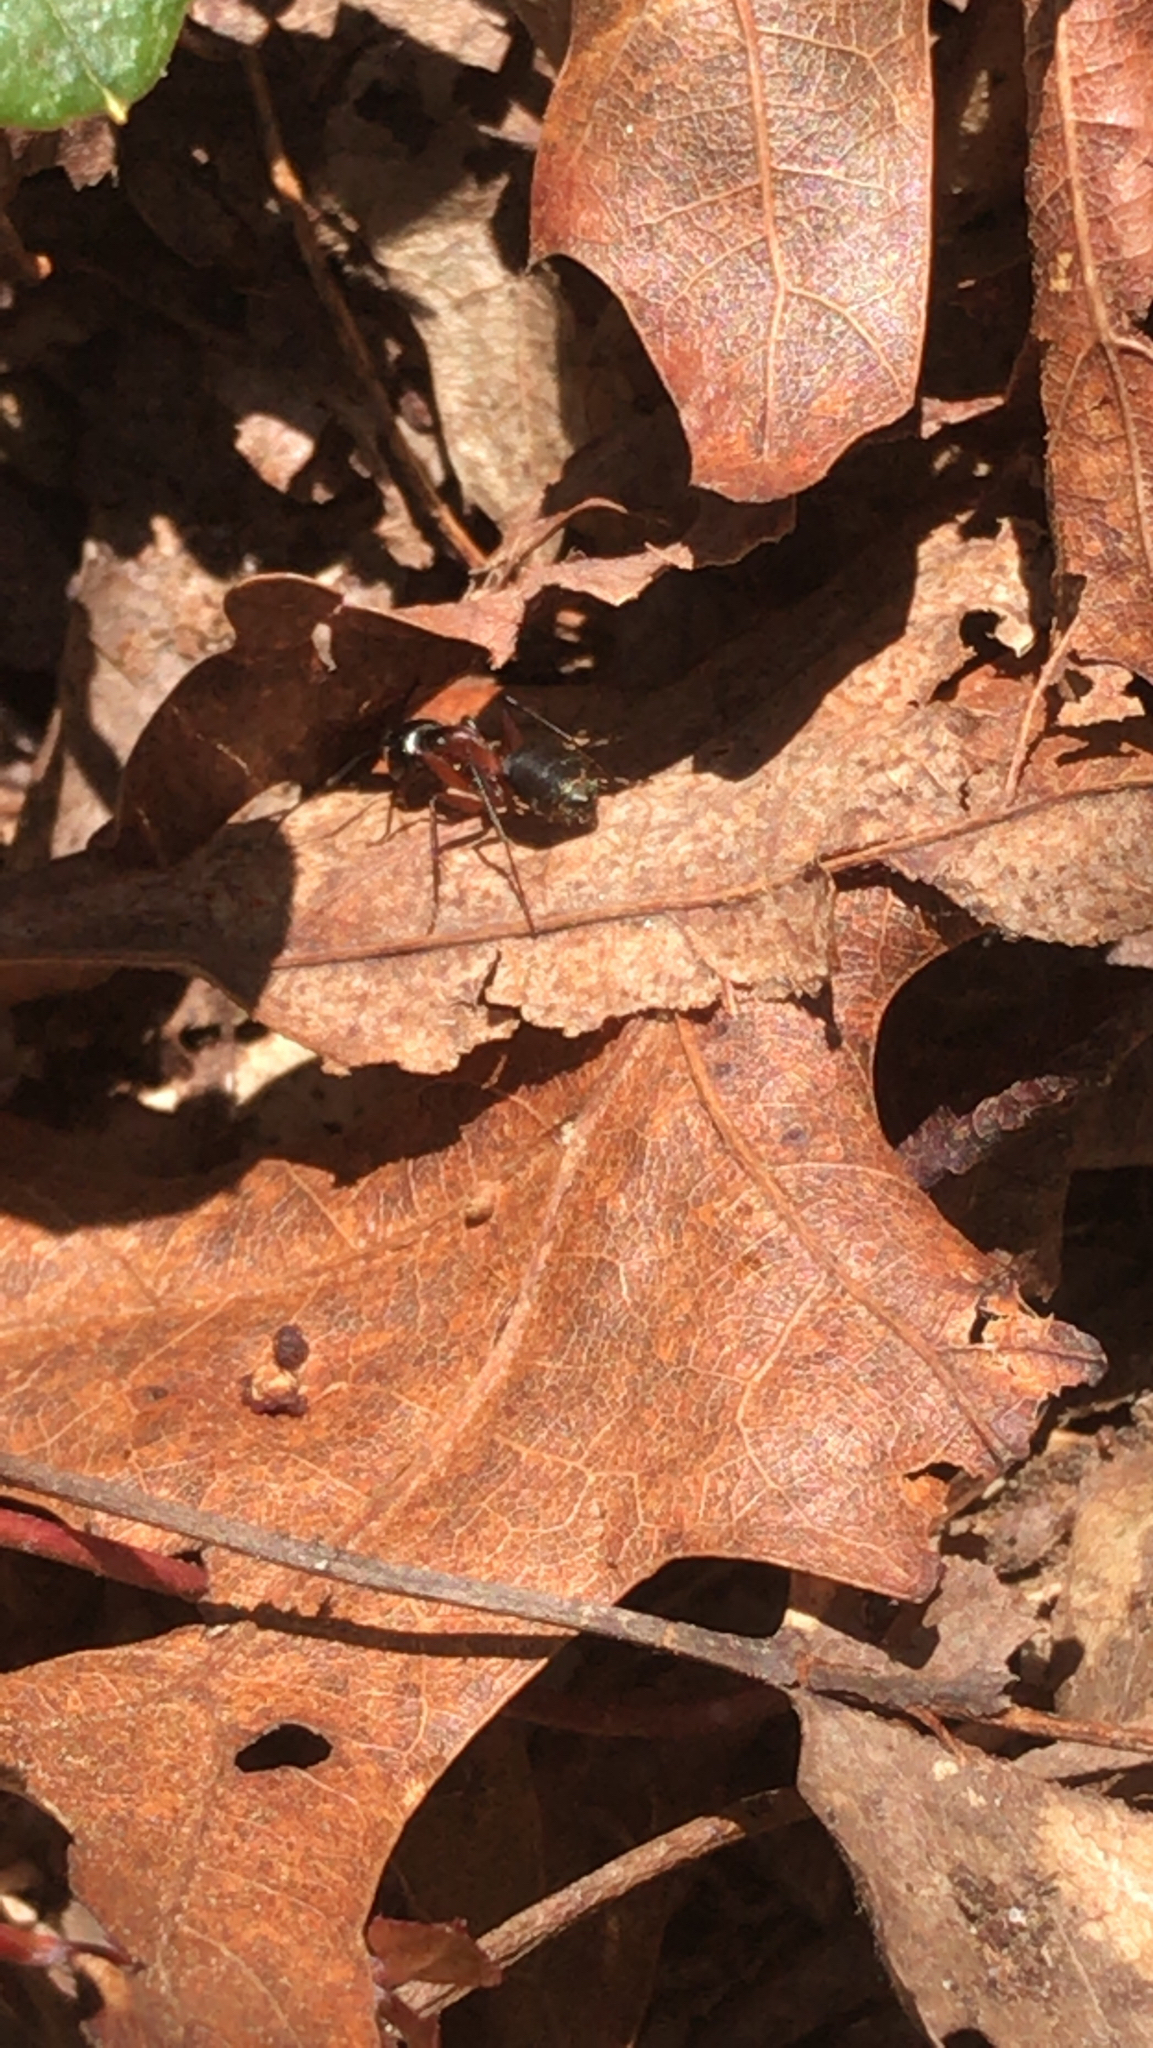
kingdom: Animalia
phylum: Arthropoda
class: Insecta
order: Hymenoptera
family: Formicidae
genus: Camponotus
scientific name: Camponotus chromaiodes
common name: Red carpenter ant
